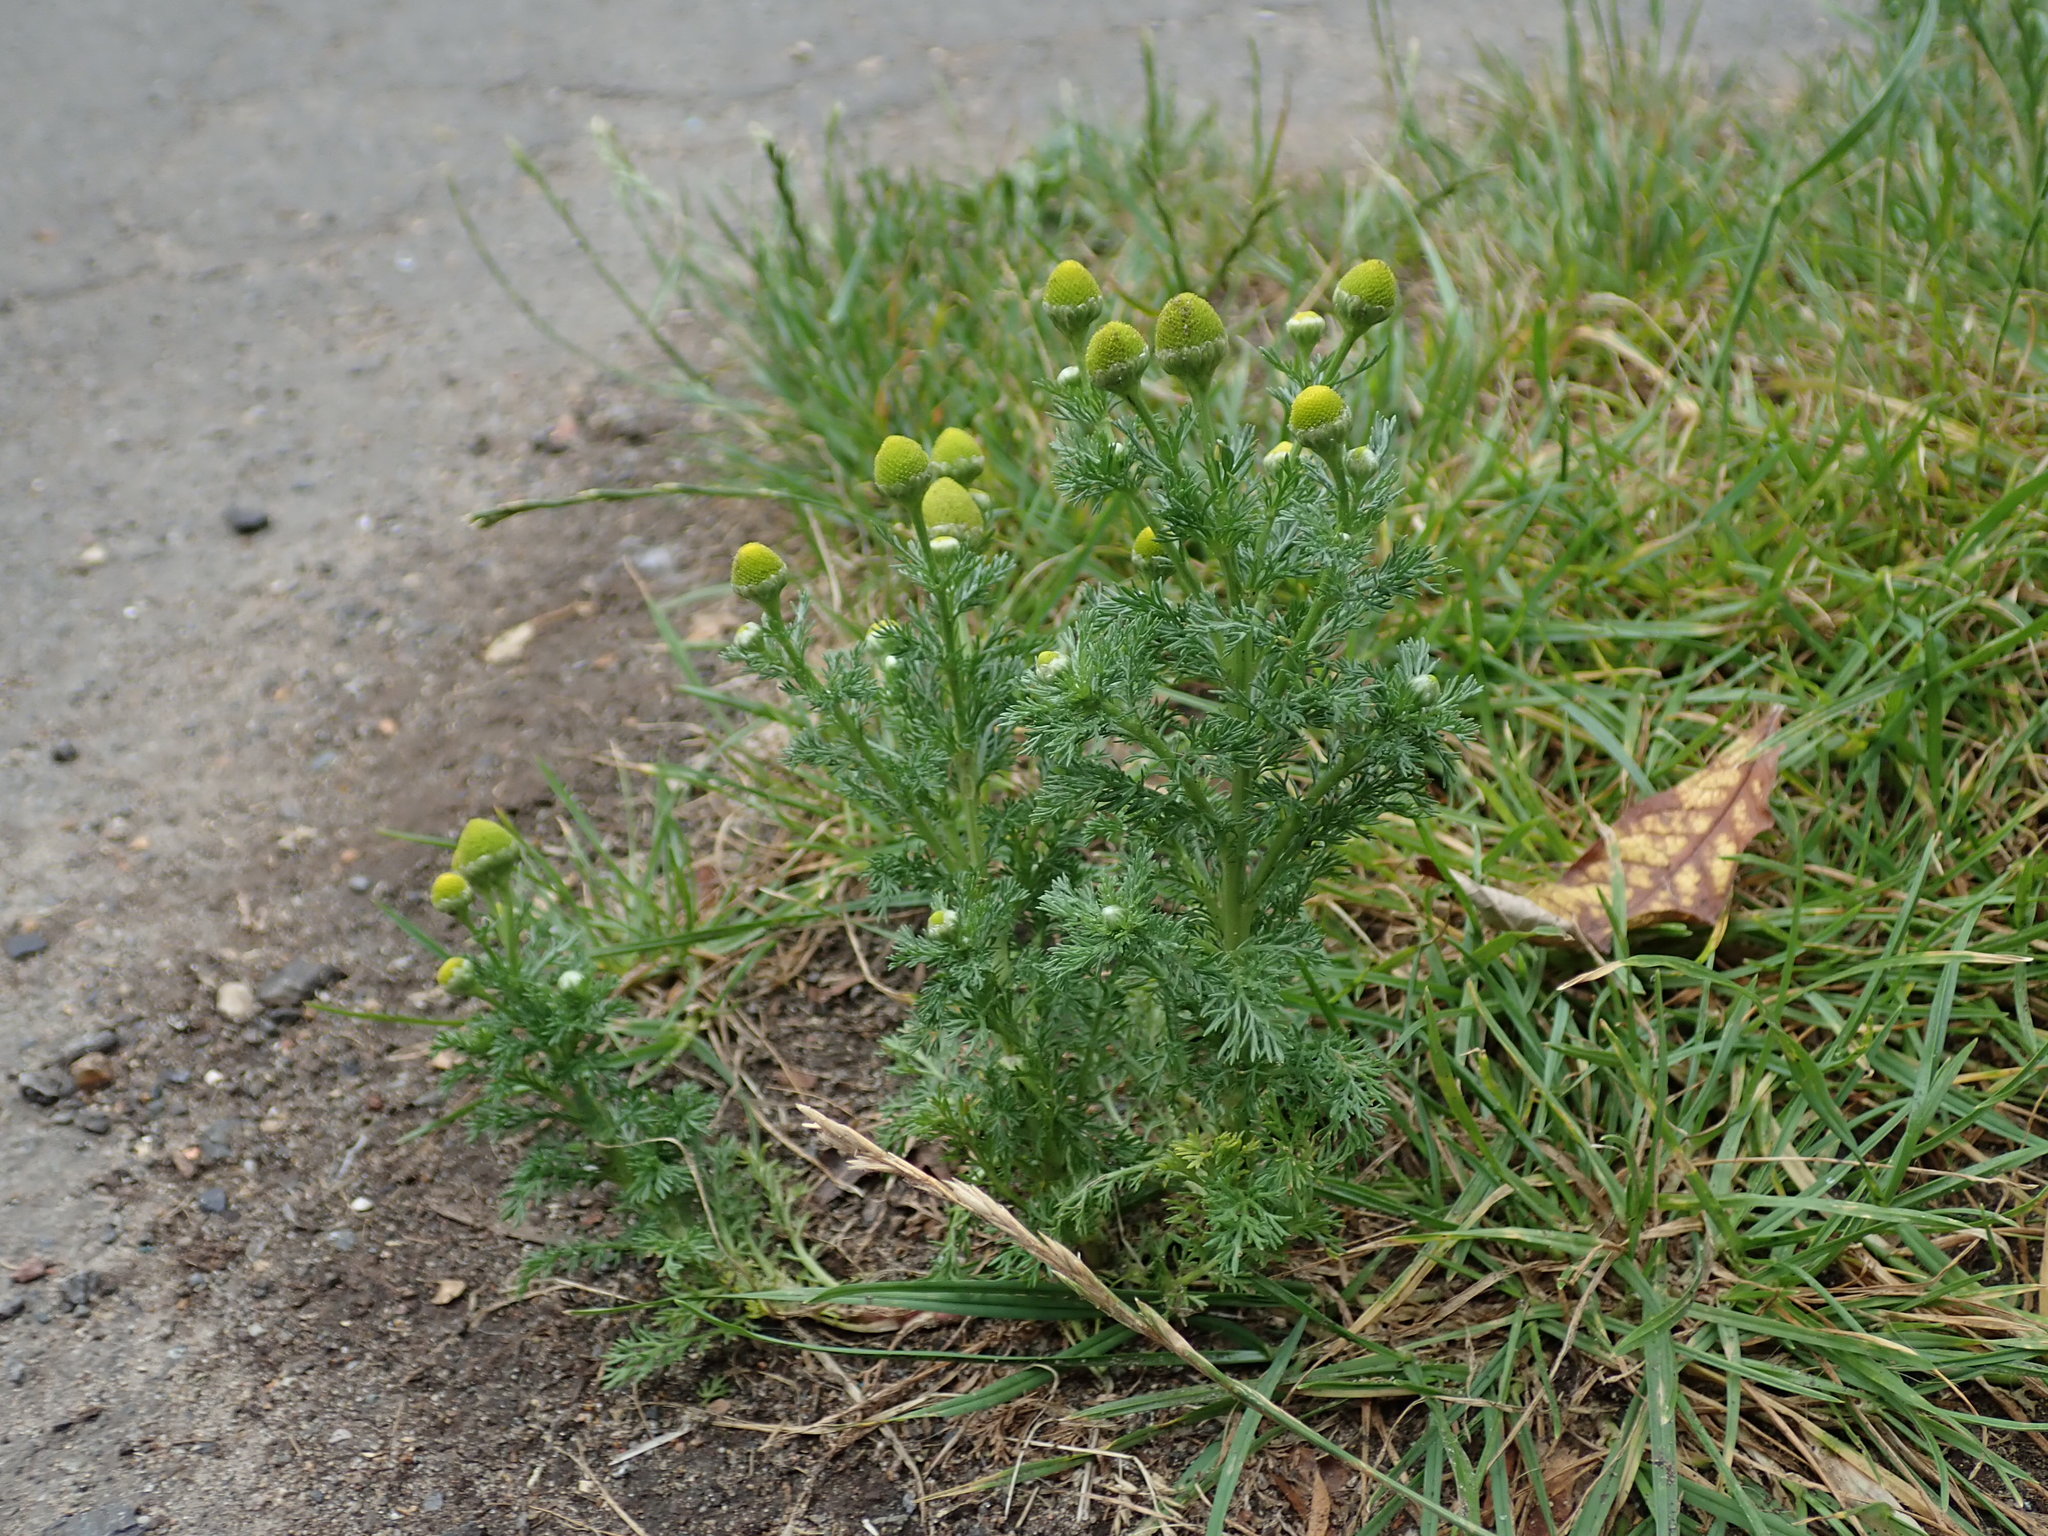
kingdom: Plantae
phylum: Tracheophyta
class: Magnoliopsida
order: Asterales
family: Asteraceae
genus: Matricaria
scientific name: Matricaria discoidea
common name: Disc mayweed
